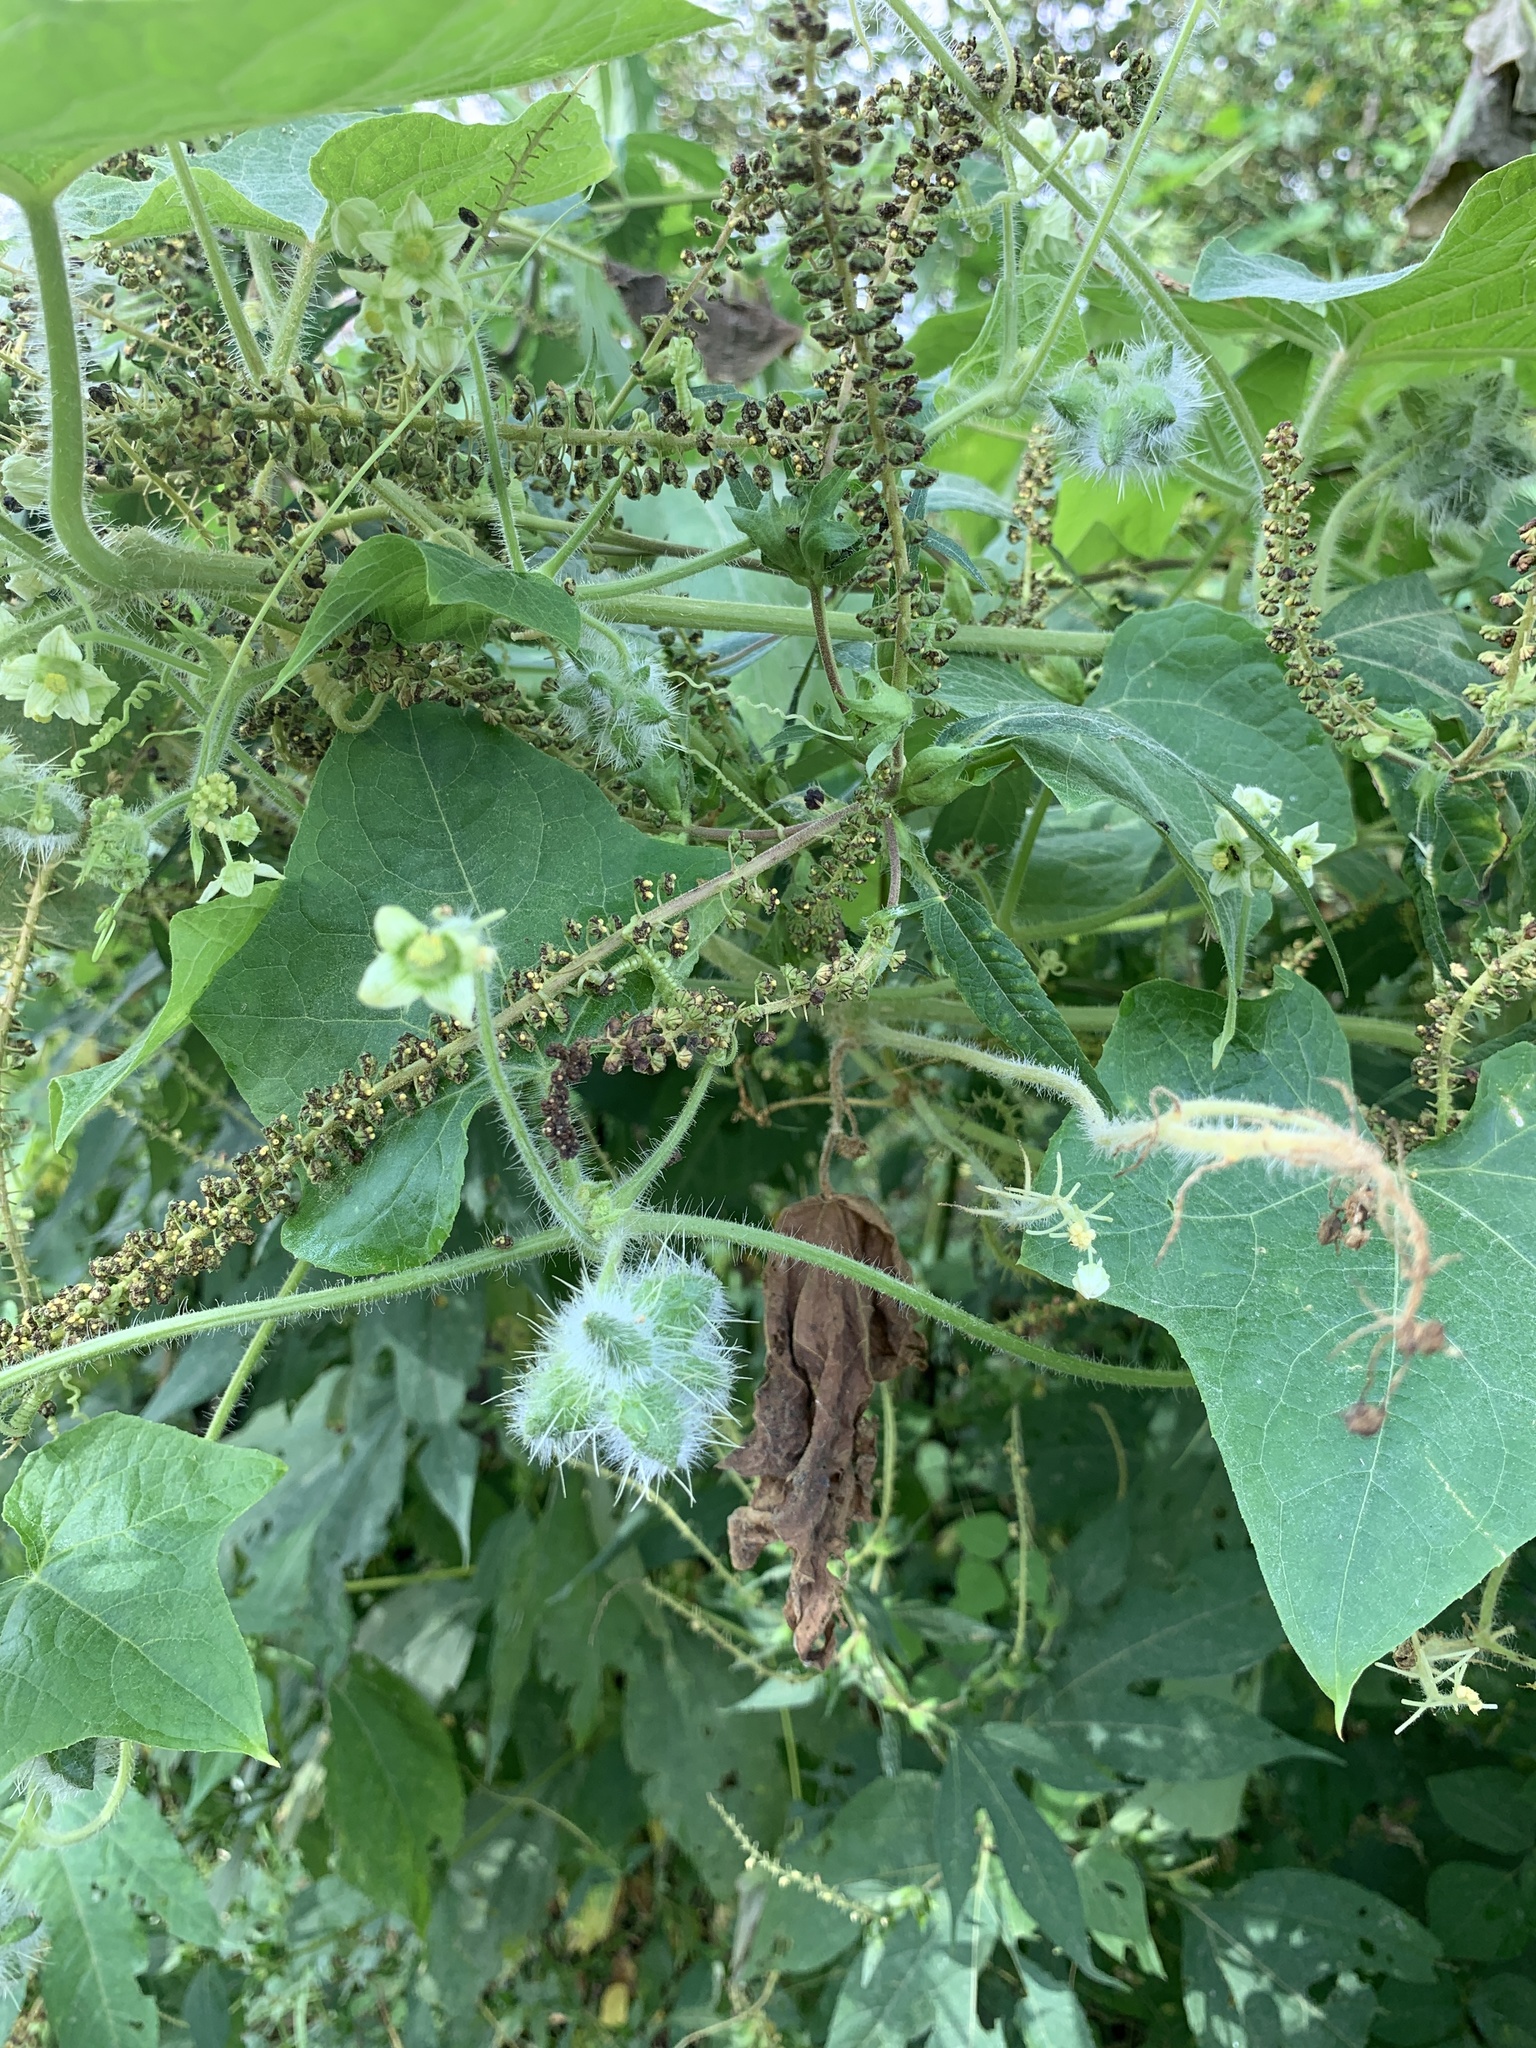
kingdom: Plantae
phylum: Tracheophyta
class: Magnoliopsida
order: Cucurbitales
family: Cucurbitaceae
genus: Sicyos
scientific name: Sicyos angulatus
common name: Angled burr cucumber
